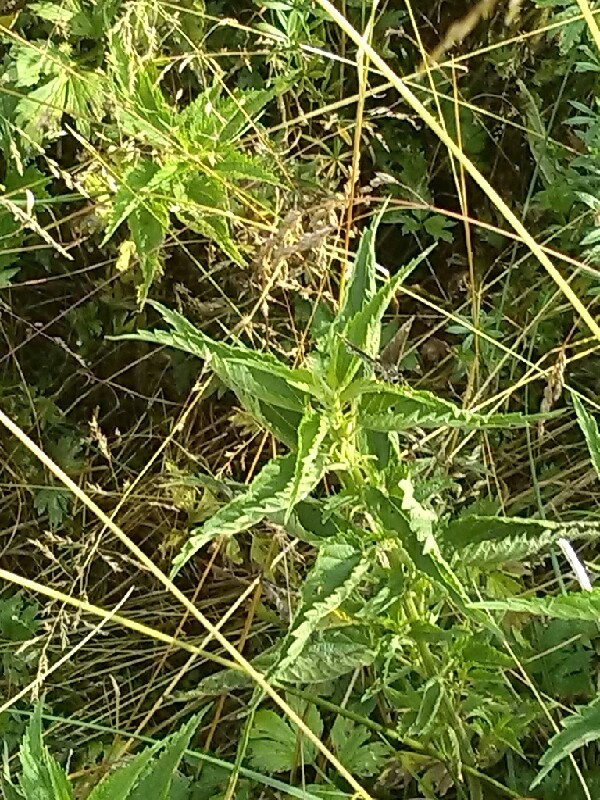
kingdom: Animalia
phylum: Arthropoda
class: Insecta
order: Lepidoptera
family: Hesperiidae
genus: Heteropterus
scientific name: Heteropterus morpheus
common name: Large chequered skipper
